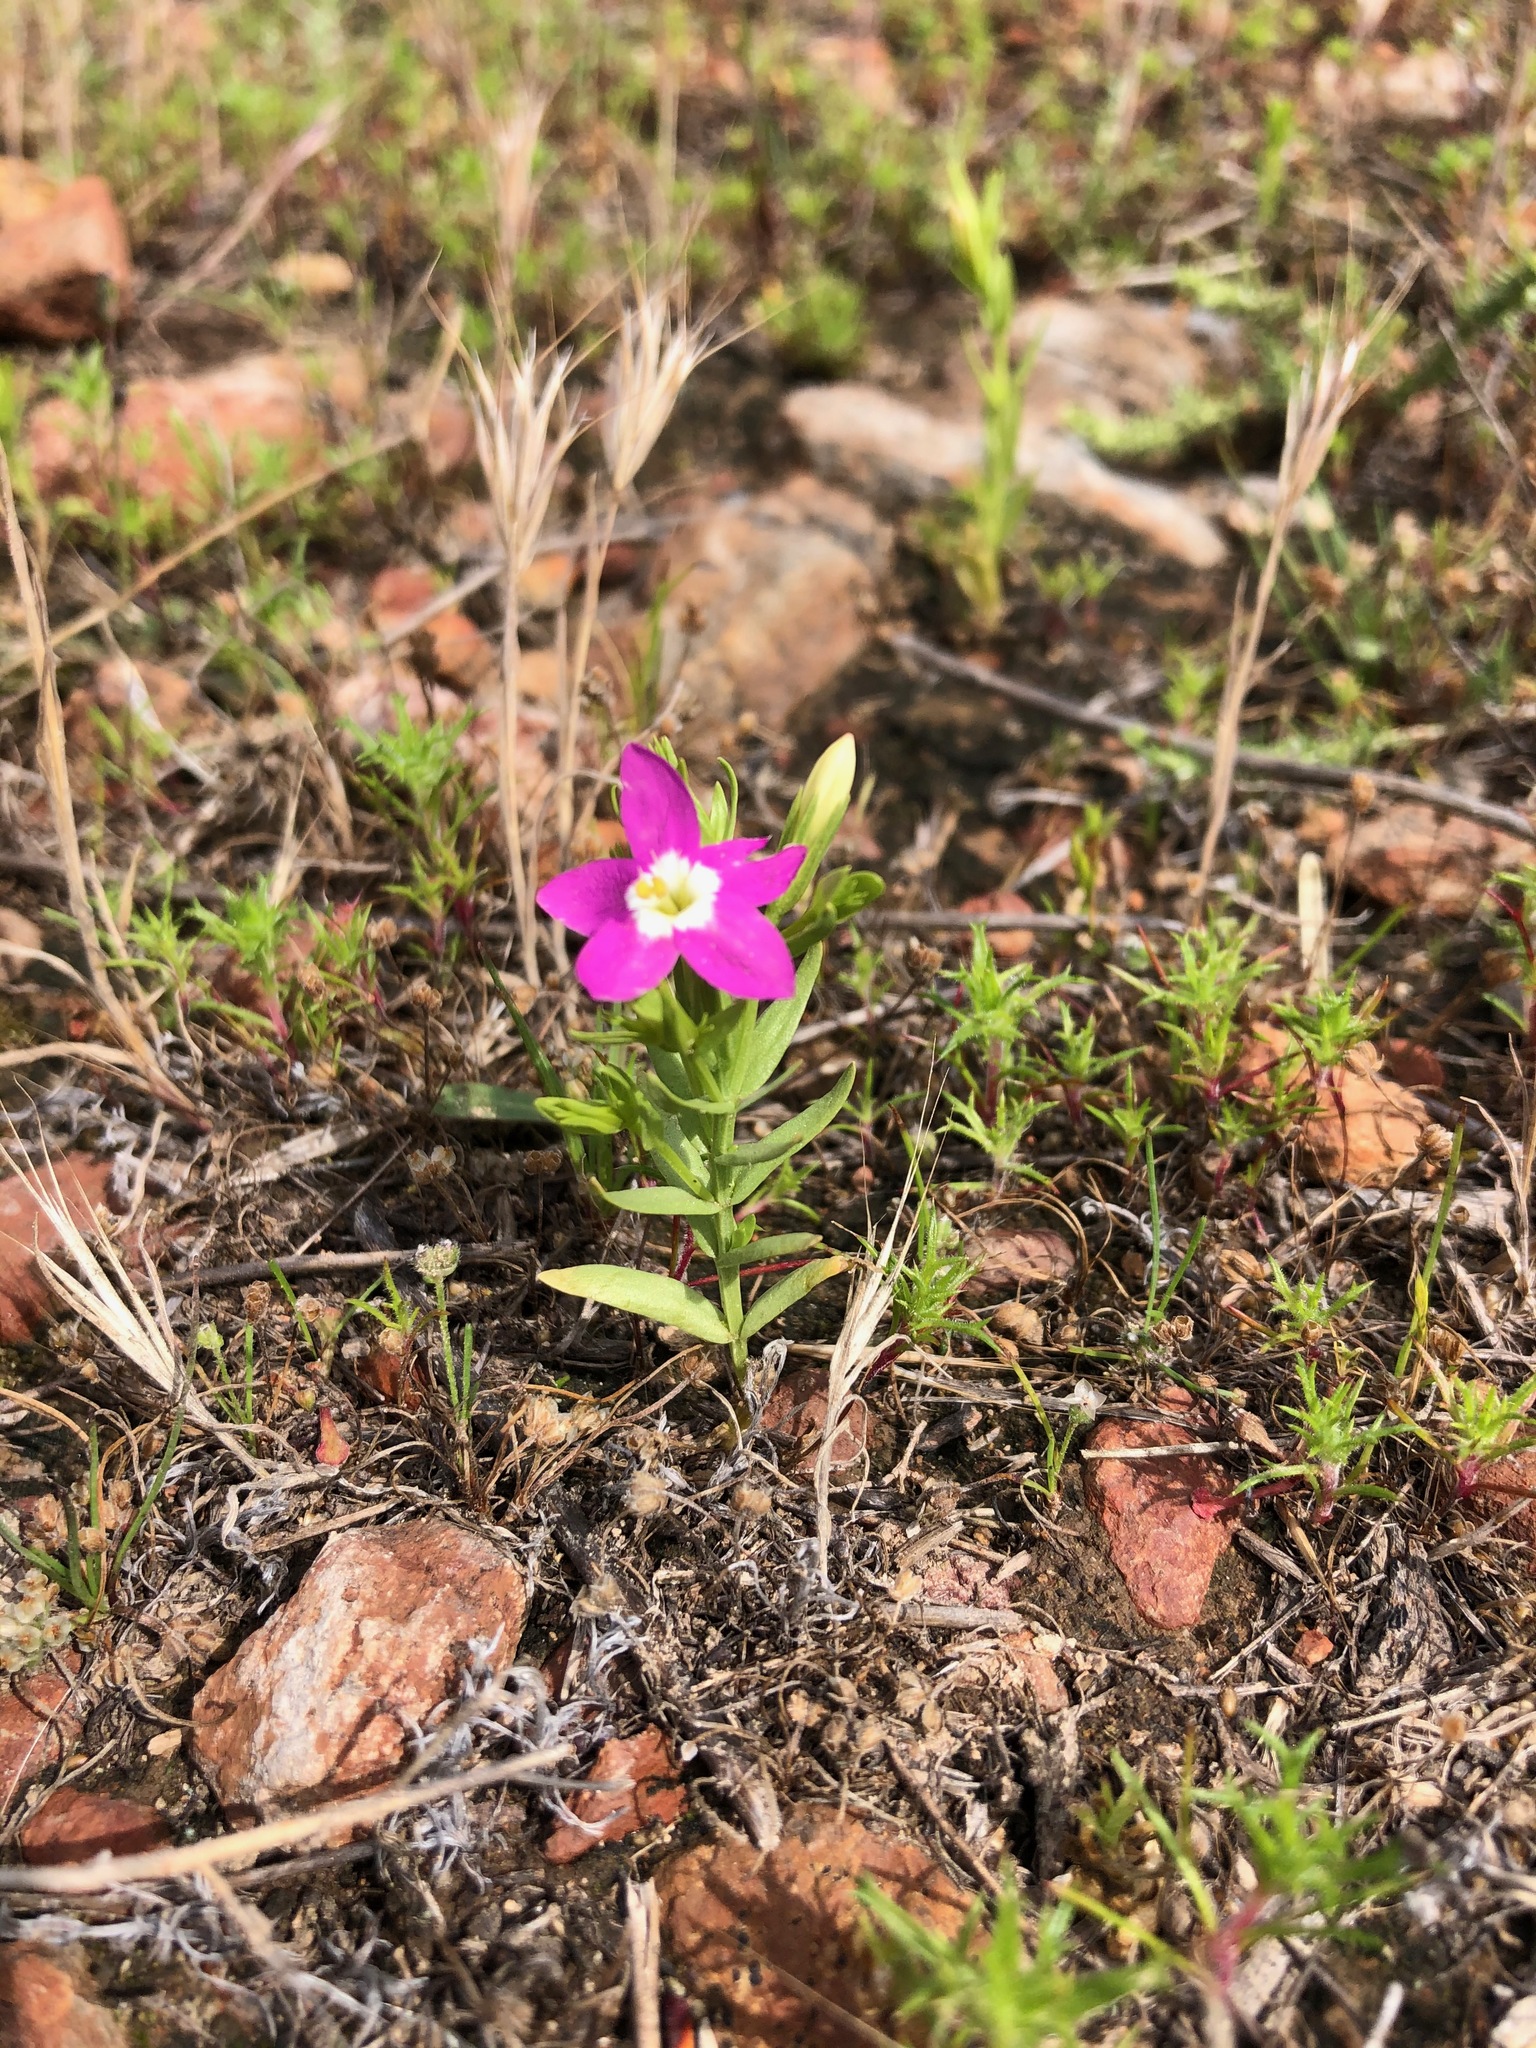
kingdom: Plantae
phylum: Tracheophyta
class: Magnoliopsida
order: Gentianales
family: Gentianaceae
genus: Zeltnera
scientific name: Zeltnera venusta
